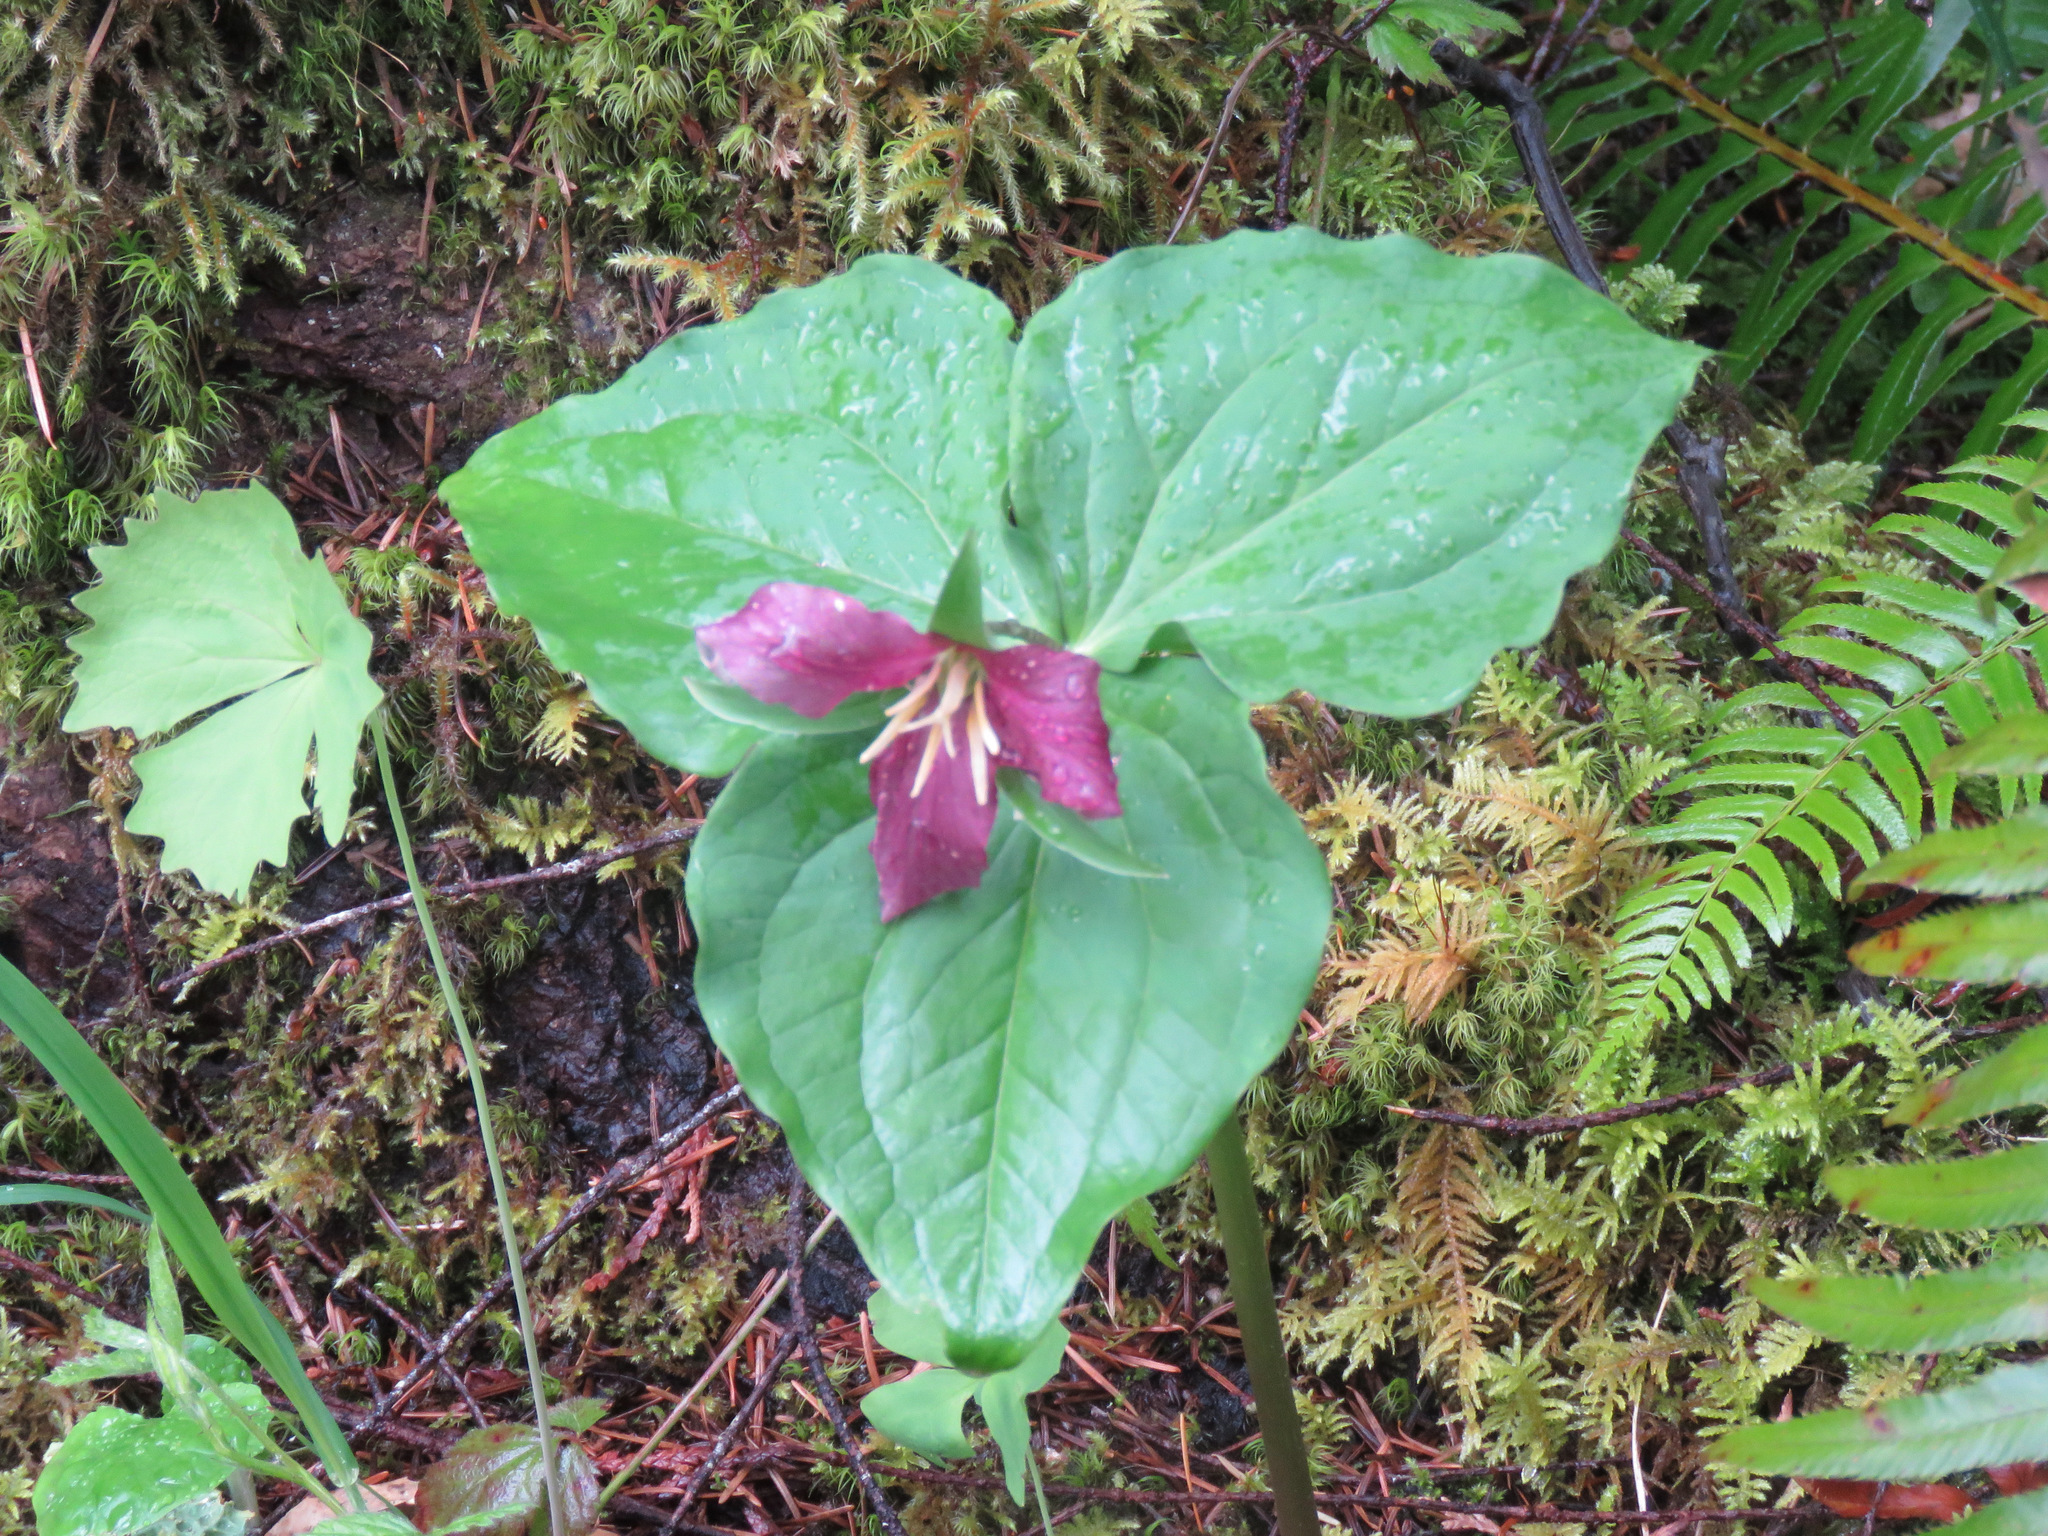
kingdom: Plantae
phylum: Tracheophyta
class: Liliopsida
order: Liliales
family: Melanthiaceae
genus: Trillium
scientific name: Trillium ovatum
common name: Pacific trillium
